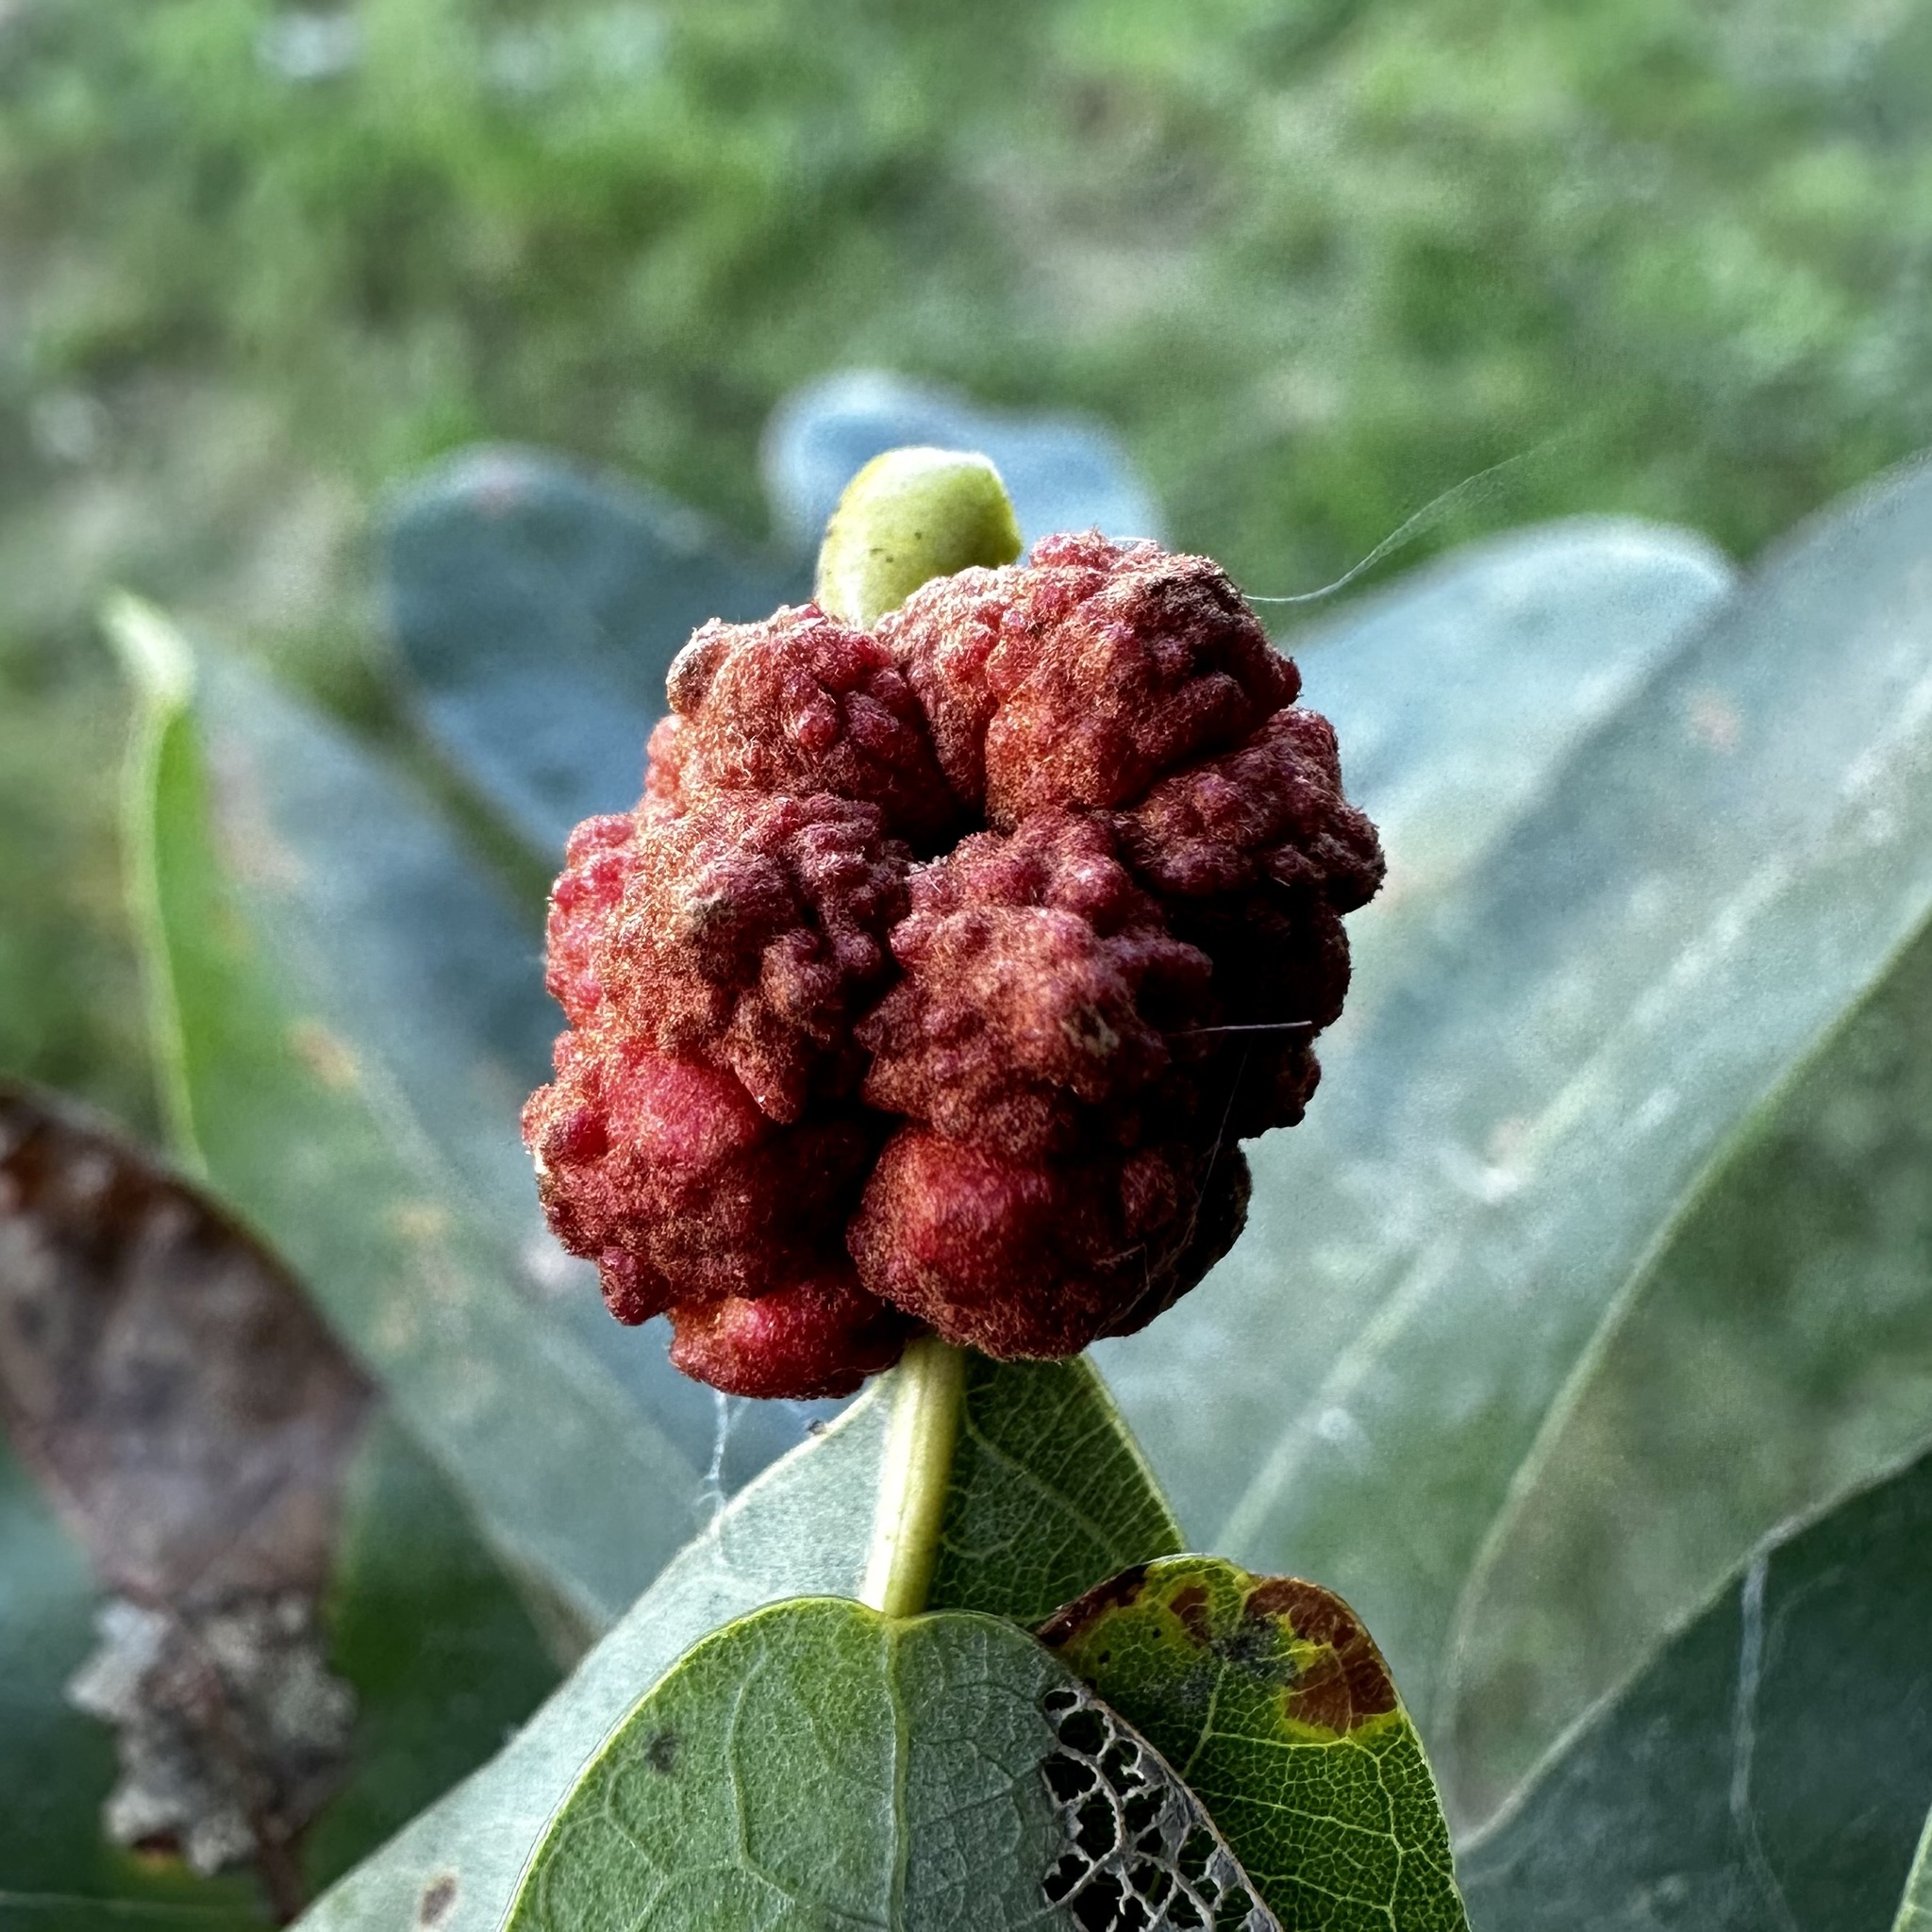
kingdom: Animalia
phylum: Arthropoda
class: Insecta
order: Hymenoptera
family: Cynipidae
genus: Andricus
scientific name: Andricus
